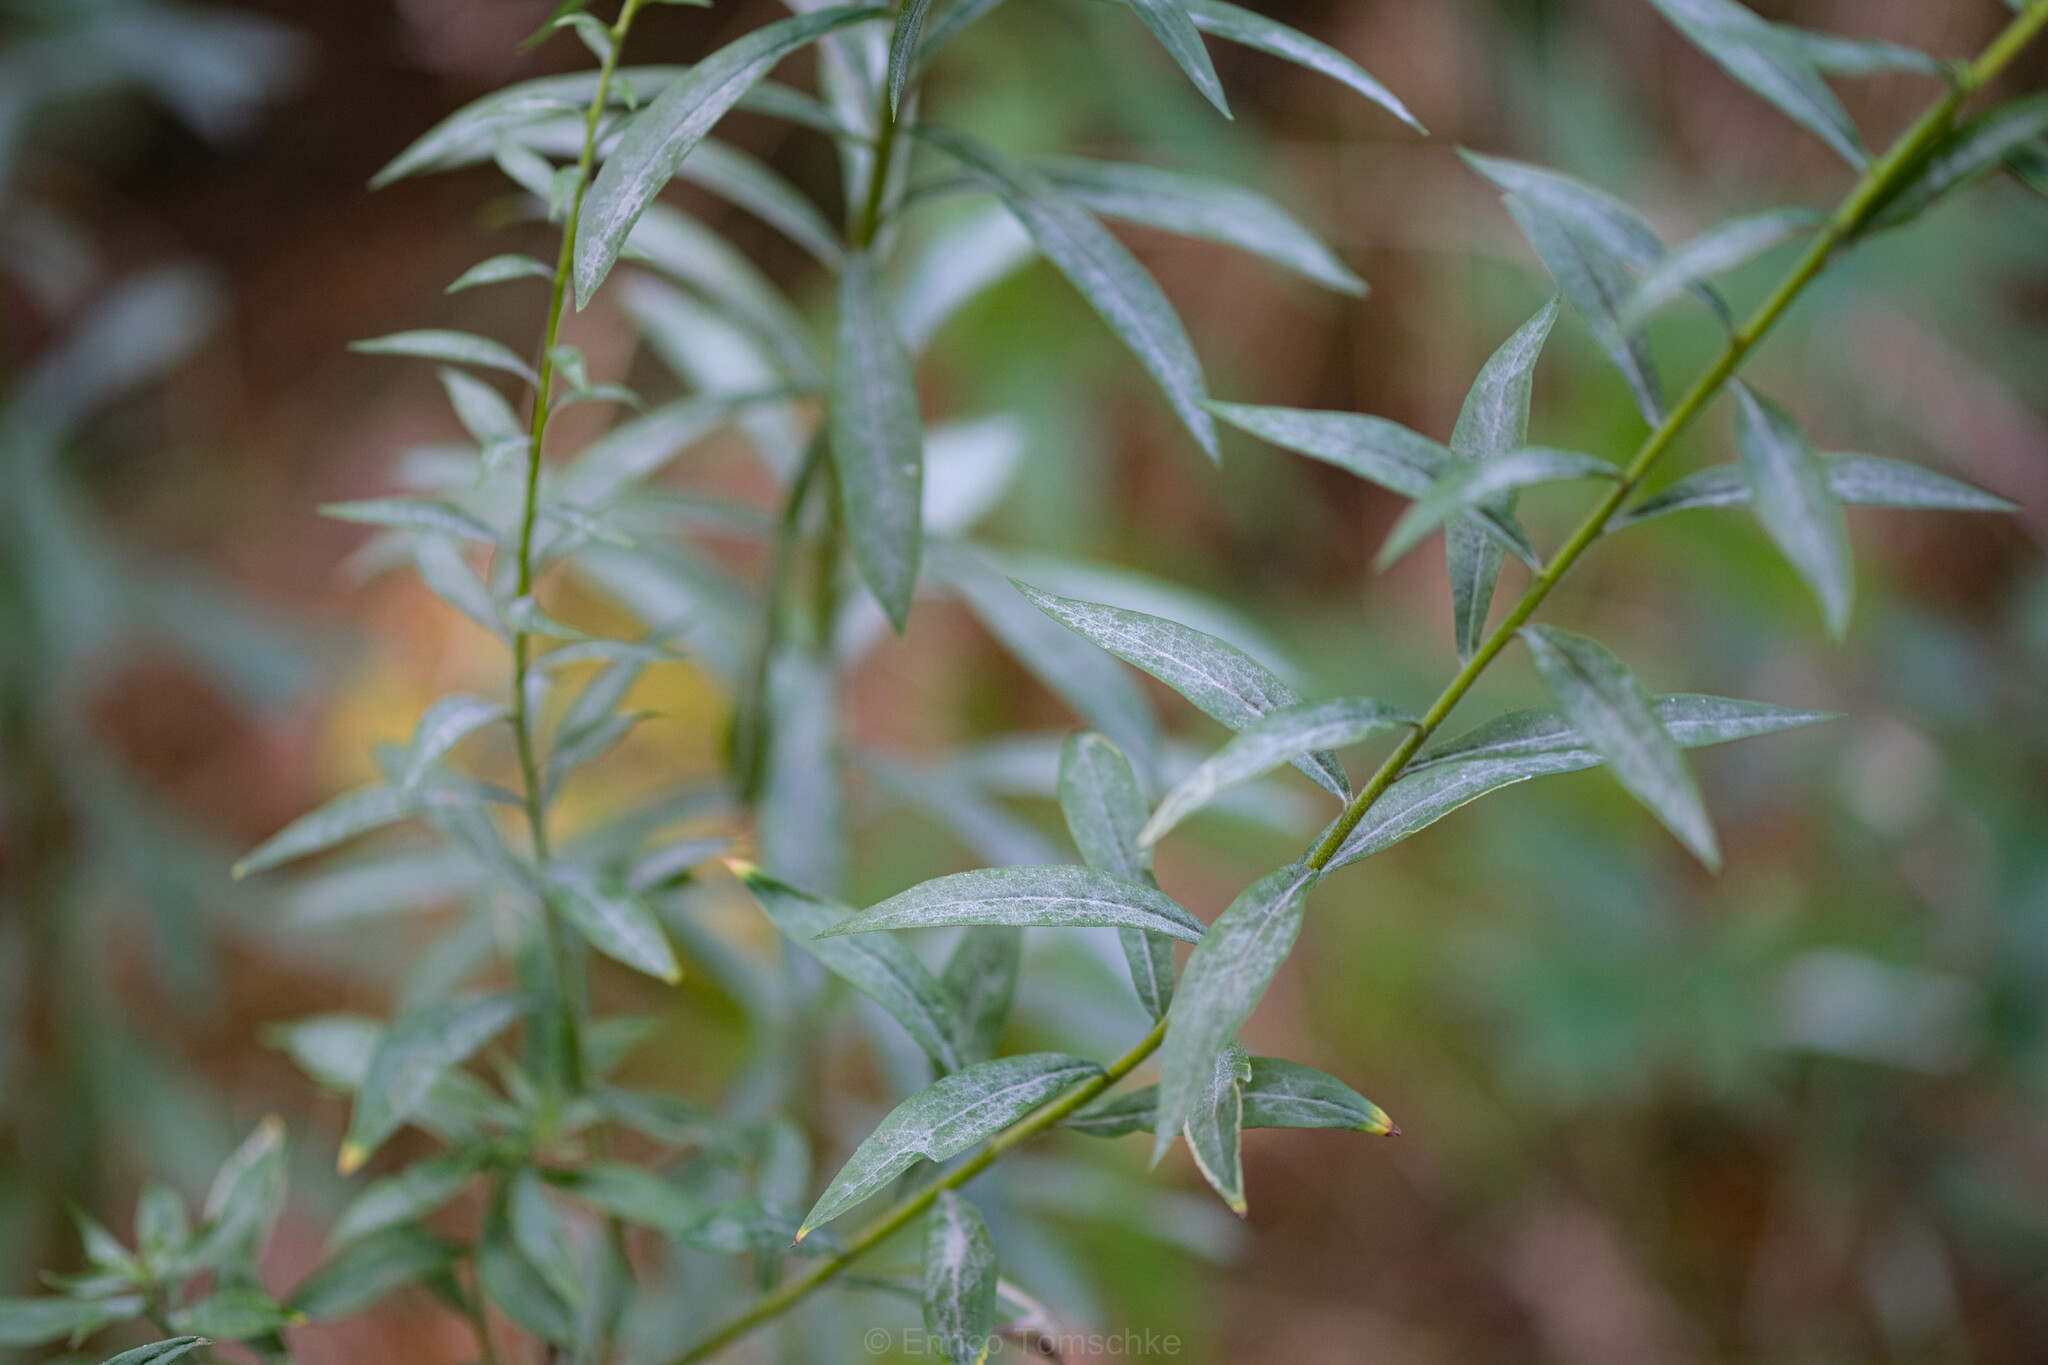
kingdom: Fungi
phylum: Ascomycota
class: Leotiomycetes
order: Helotiales
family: Erysiphaceae
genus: Golovinomyces
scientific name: Golovinomyces asterum
